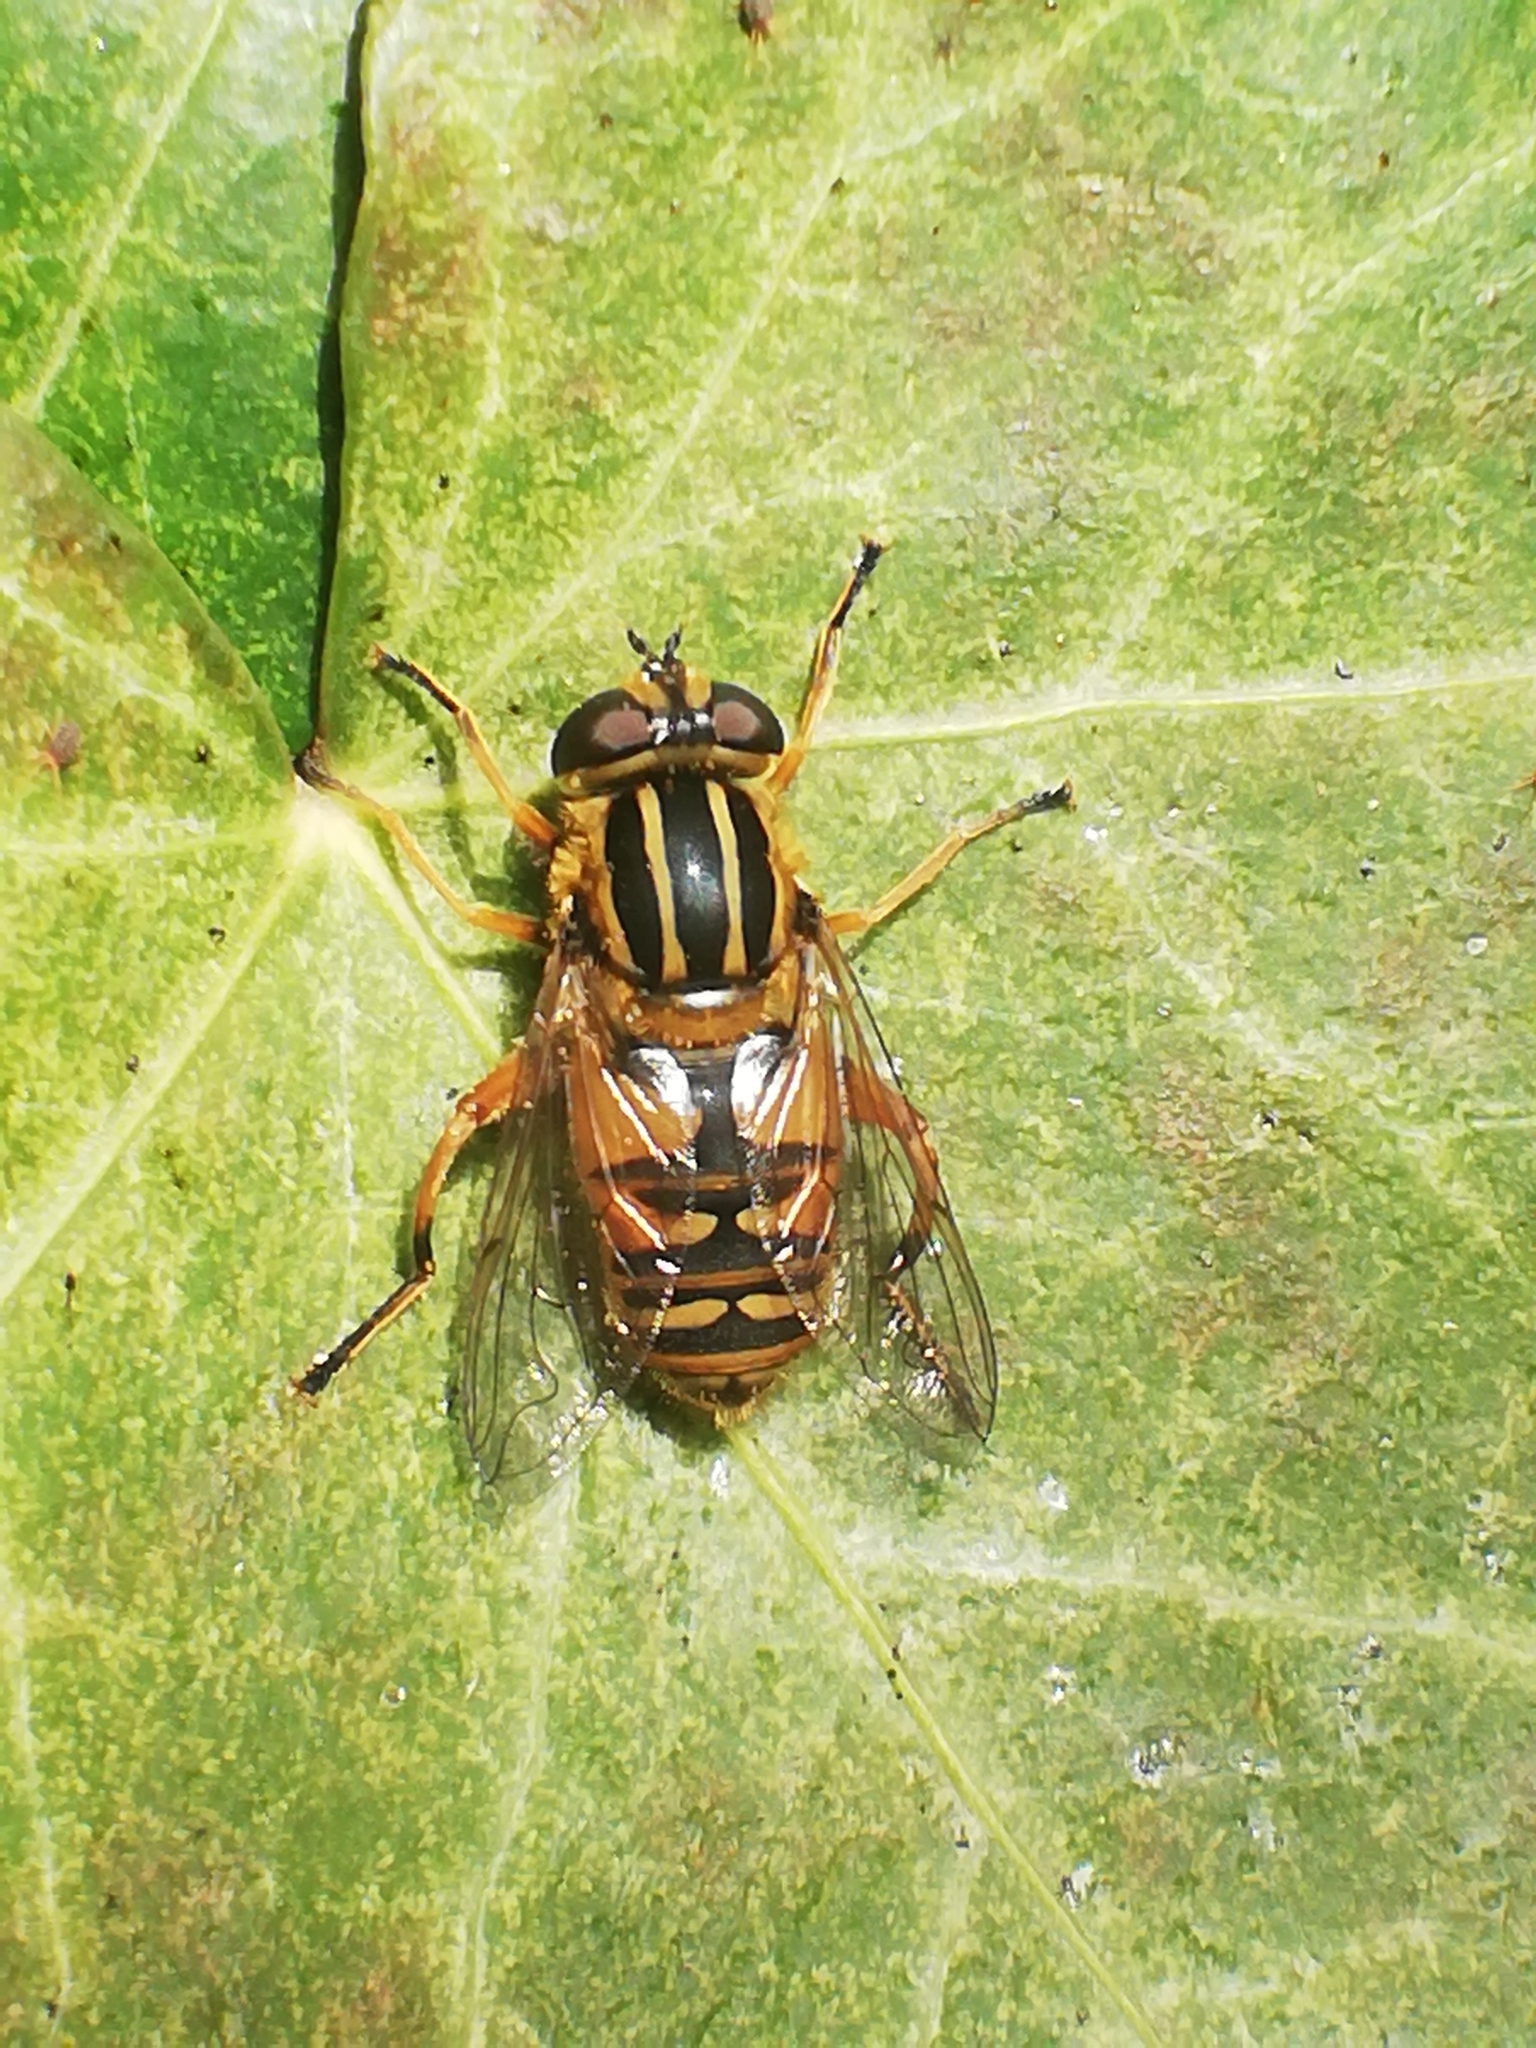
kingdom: Animalia
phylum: Arthropoda
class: Insecta
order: Diptera
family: Syrphidae
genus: Helophilus
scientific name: Helophilus pendulus
